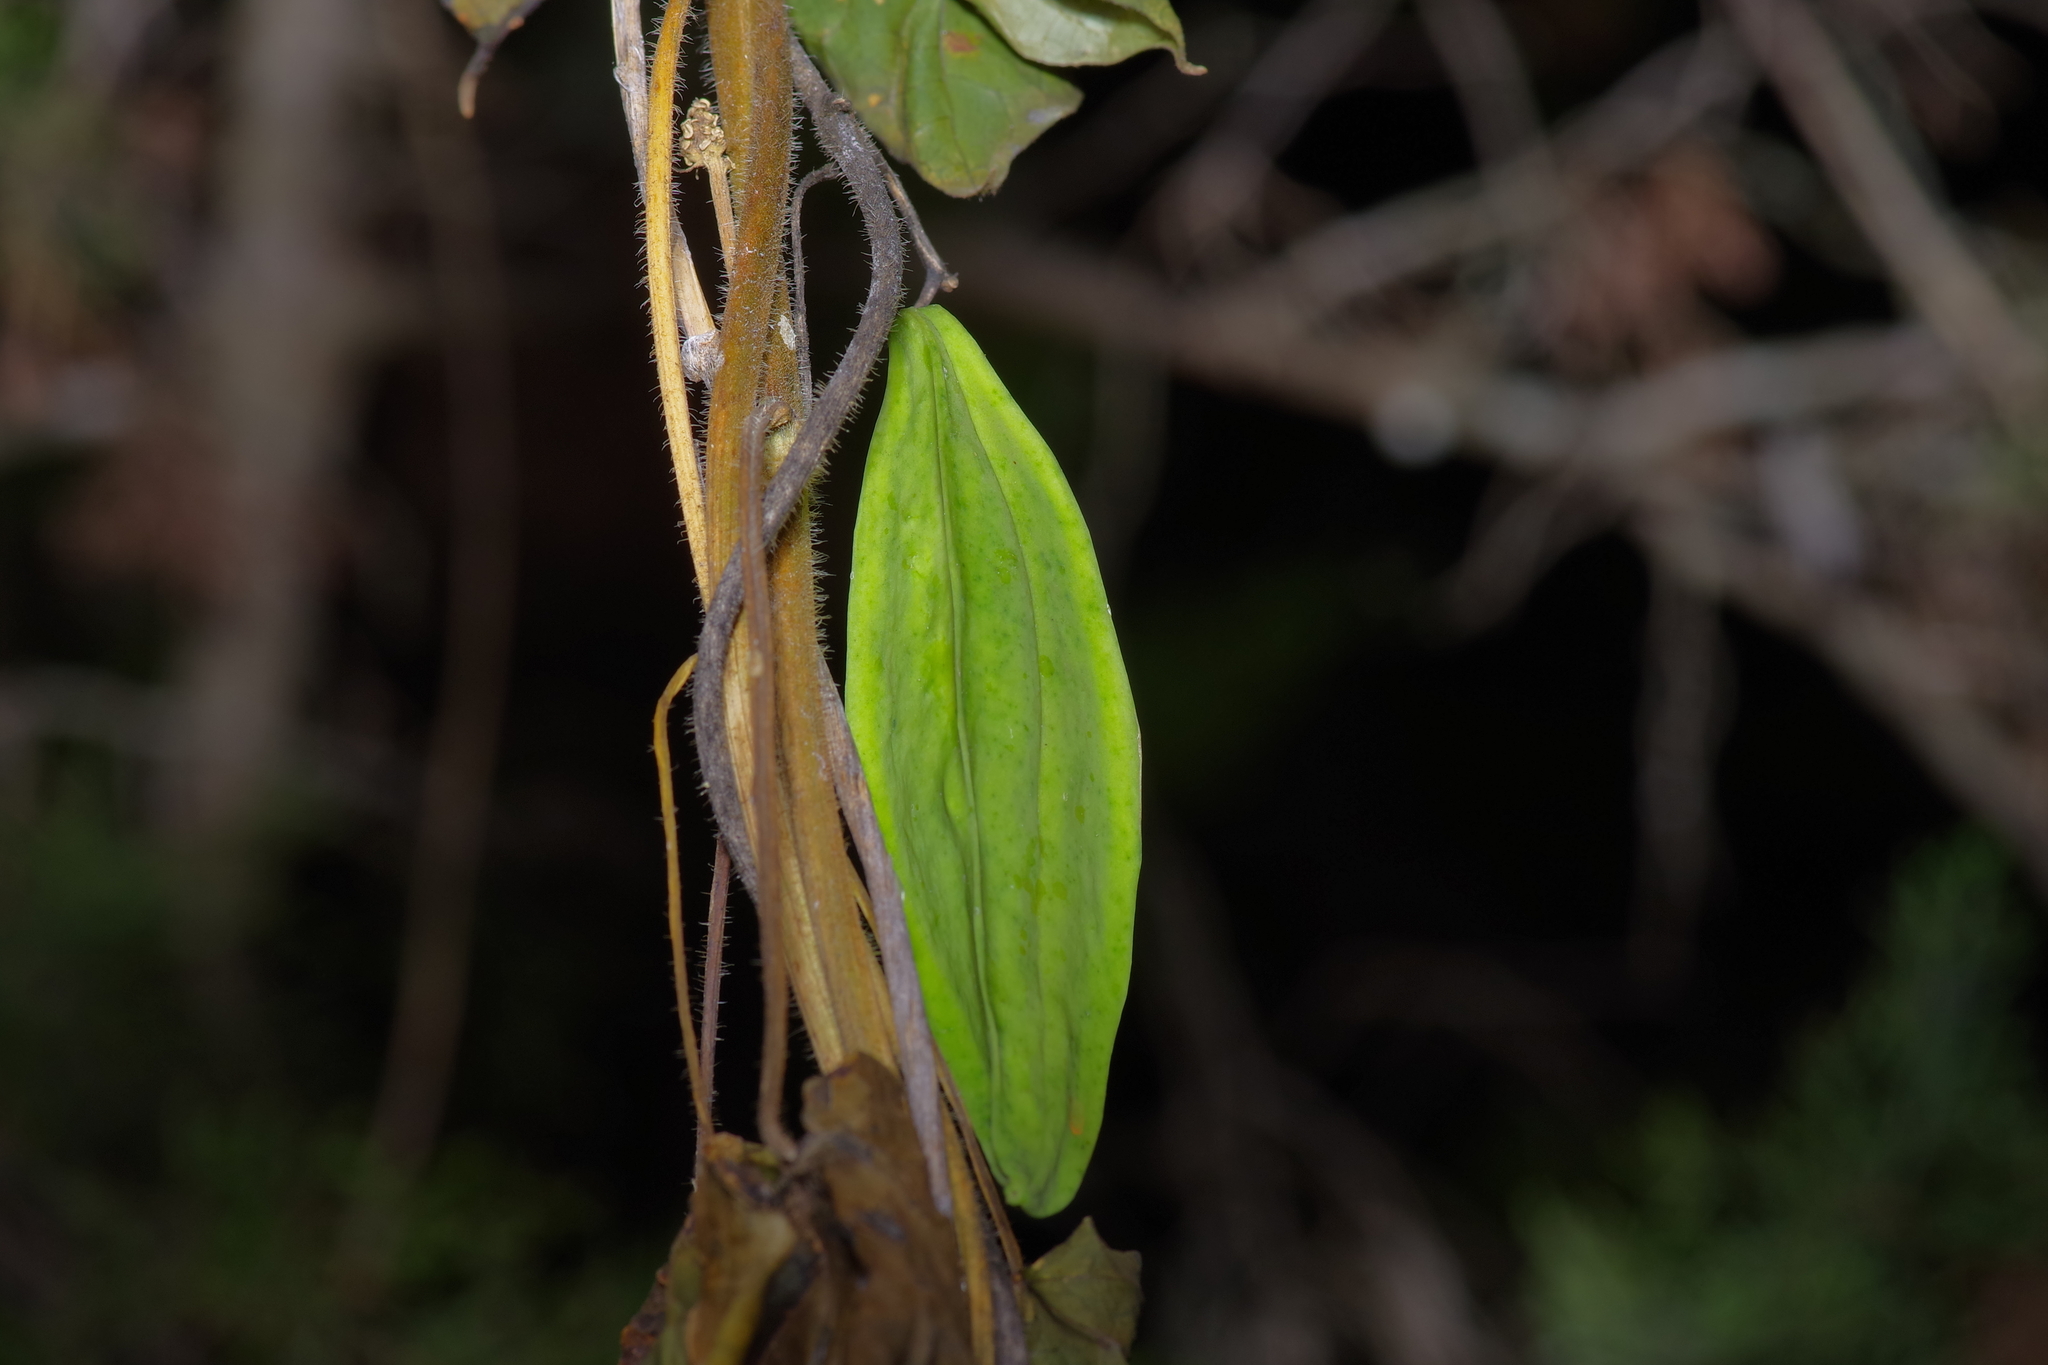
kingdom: Plantae
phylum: Tracheophyta
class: Magnoliopsida
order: Gentianales
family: Apocynaceae
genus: Gonolobus
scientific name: Gonolobus suberosus
